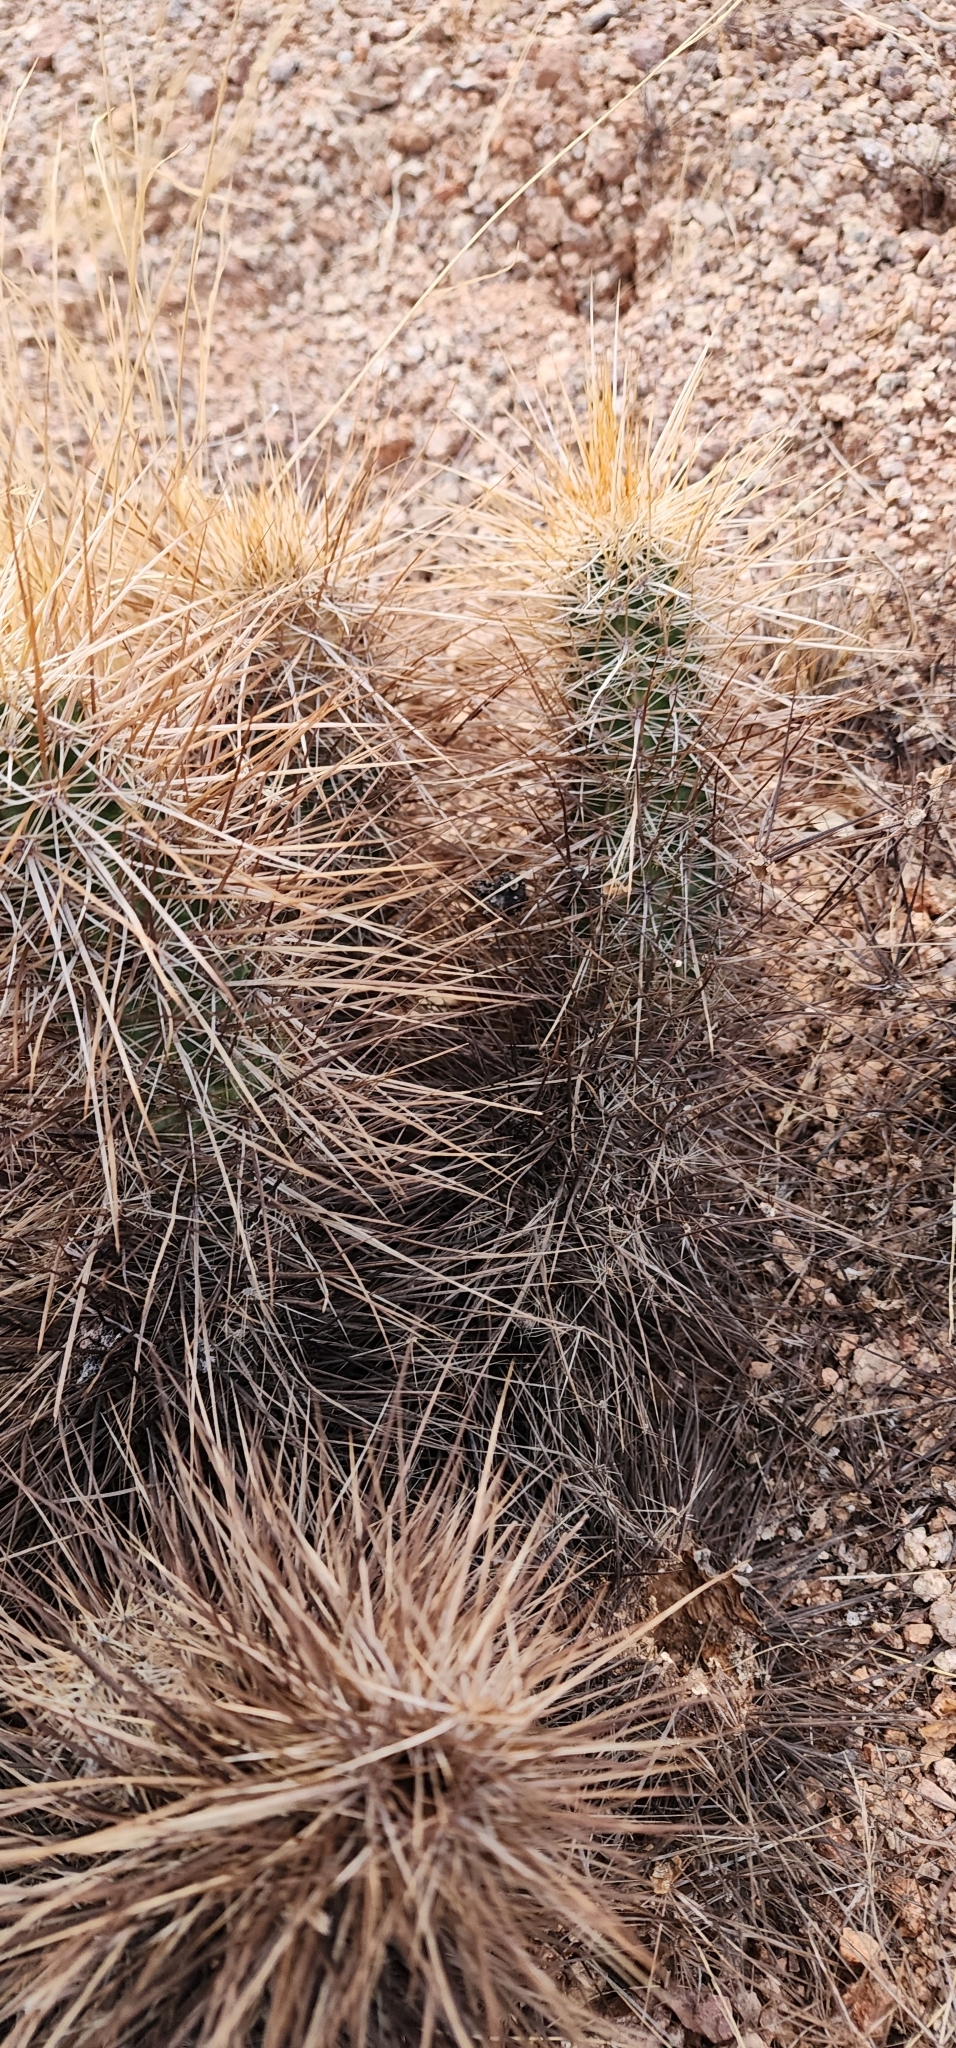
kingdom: Plantae
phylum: Tracheophyta
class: Magnoliopsida
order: Caryophyllales
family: Cactaceae
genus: Echinocereus
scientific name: Echinocereus engelmannii
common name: Engelmann's hedgehog cactus
